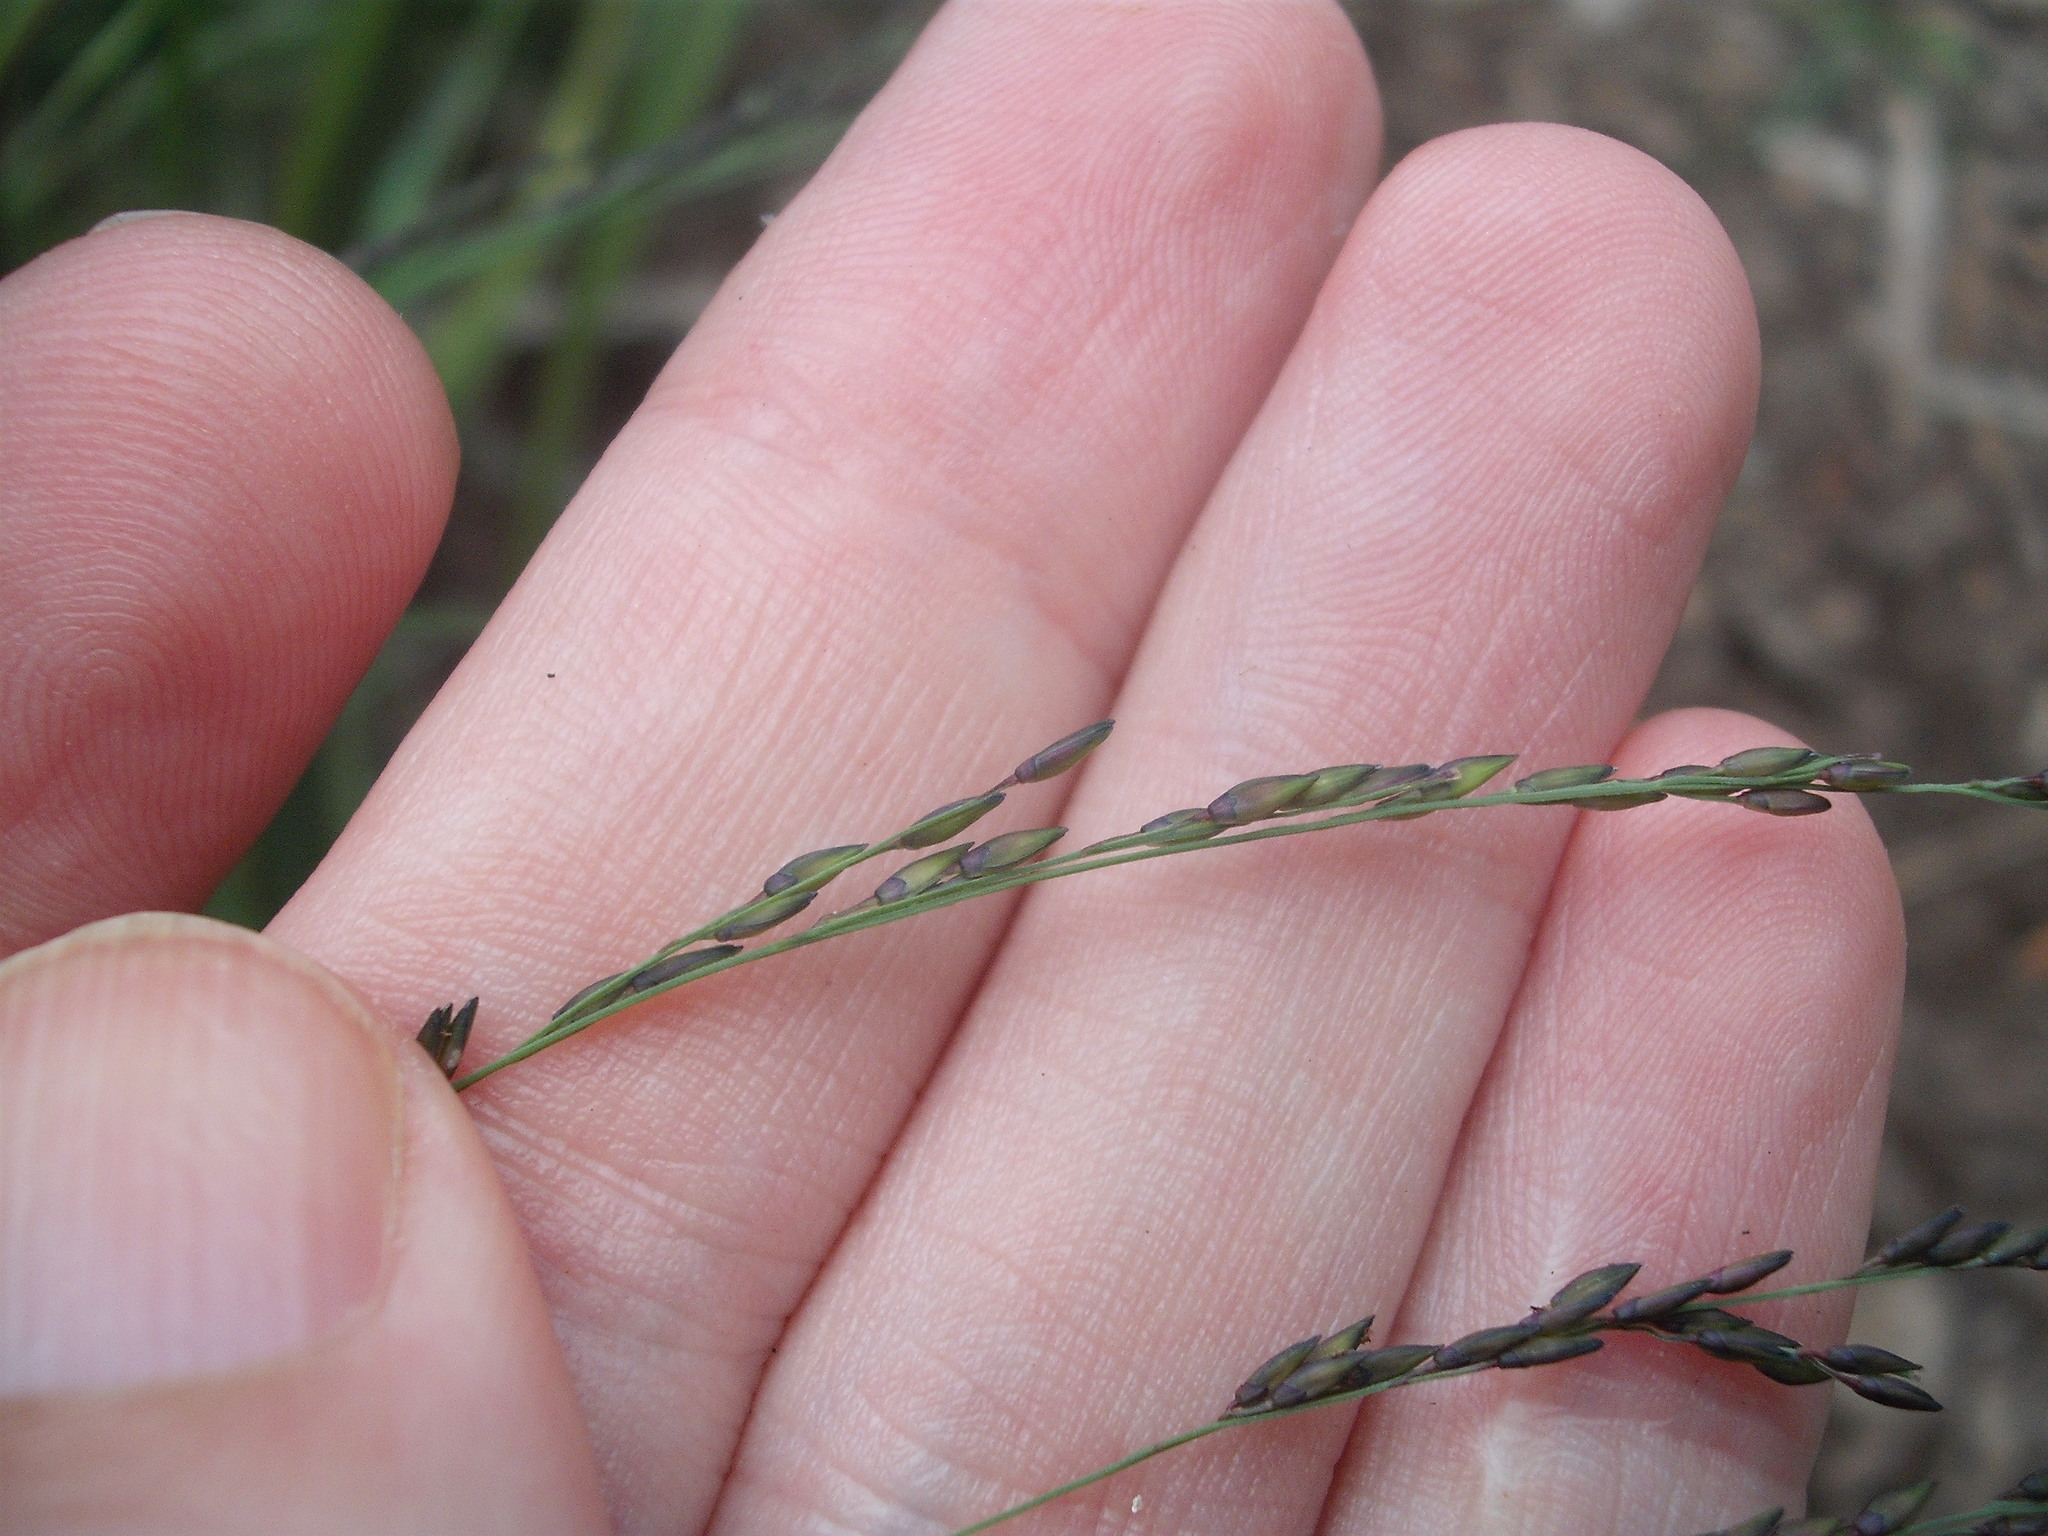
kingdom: Plantae
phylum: Tracheophyta
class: Liliopsida
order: Poales
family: Poaceae
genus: Panicum
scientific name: Panicum dichotomiflorum
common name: Autumn millet
